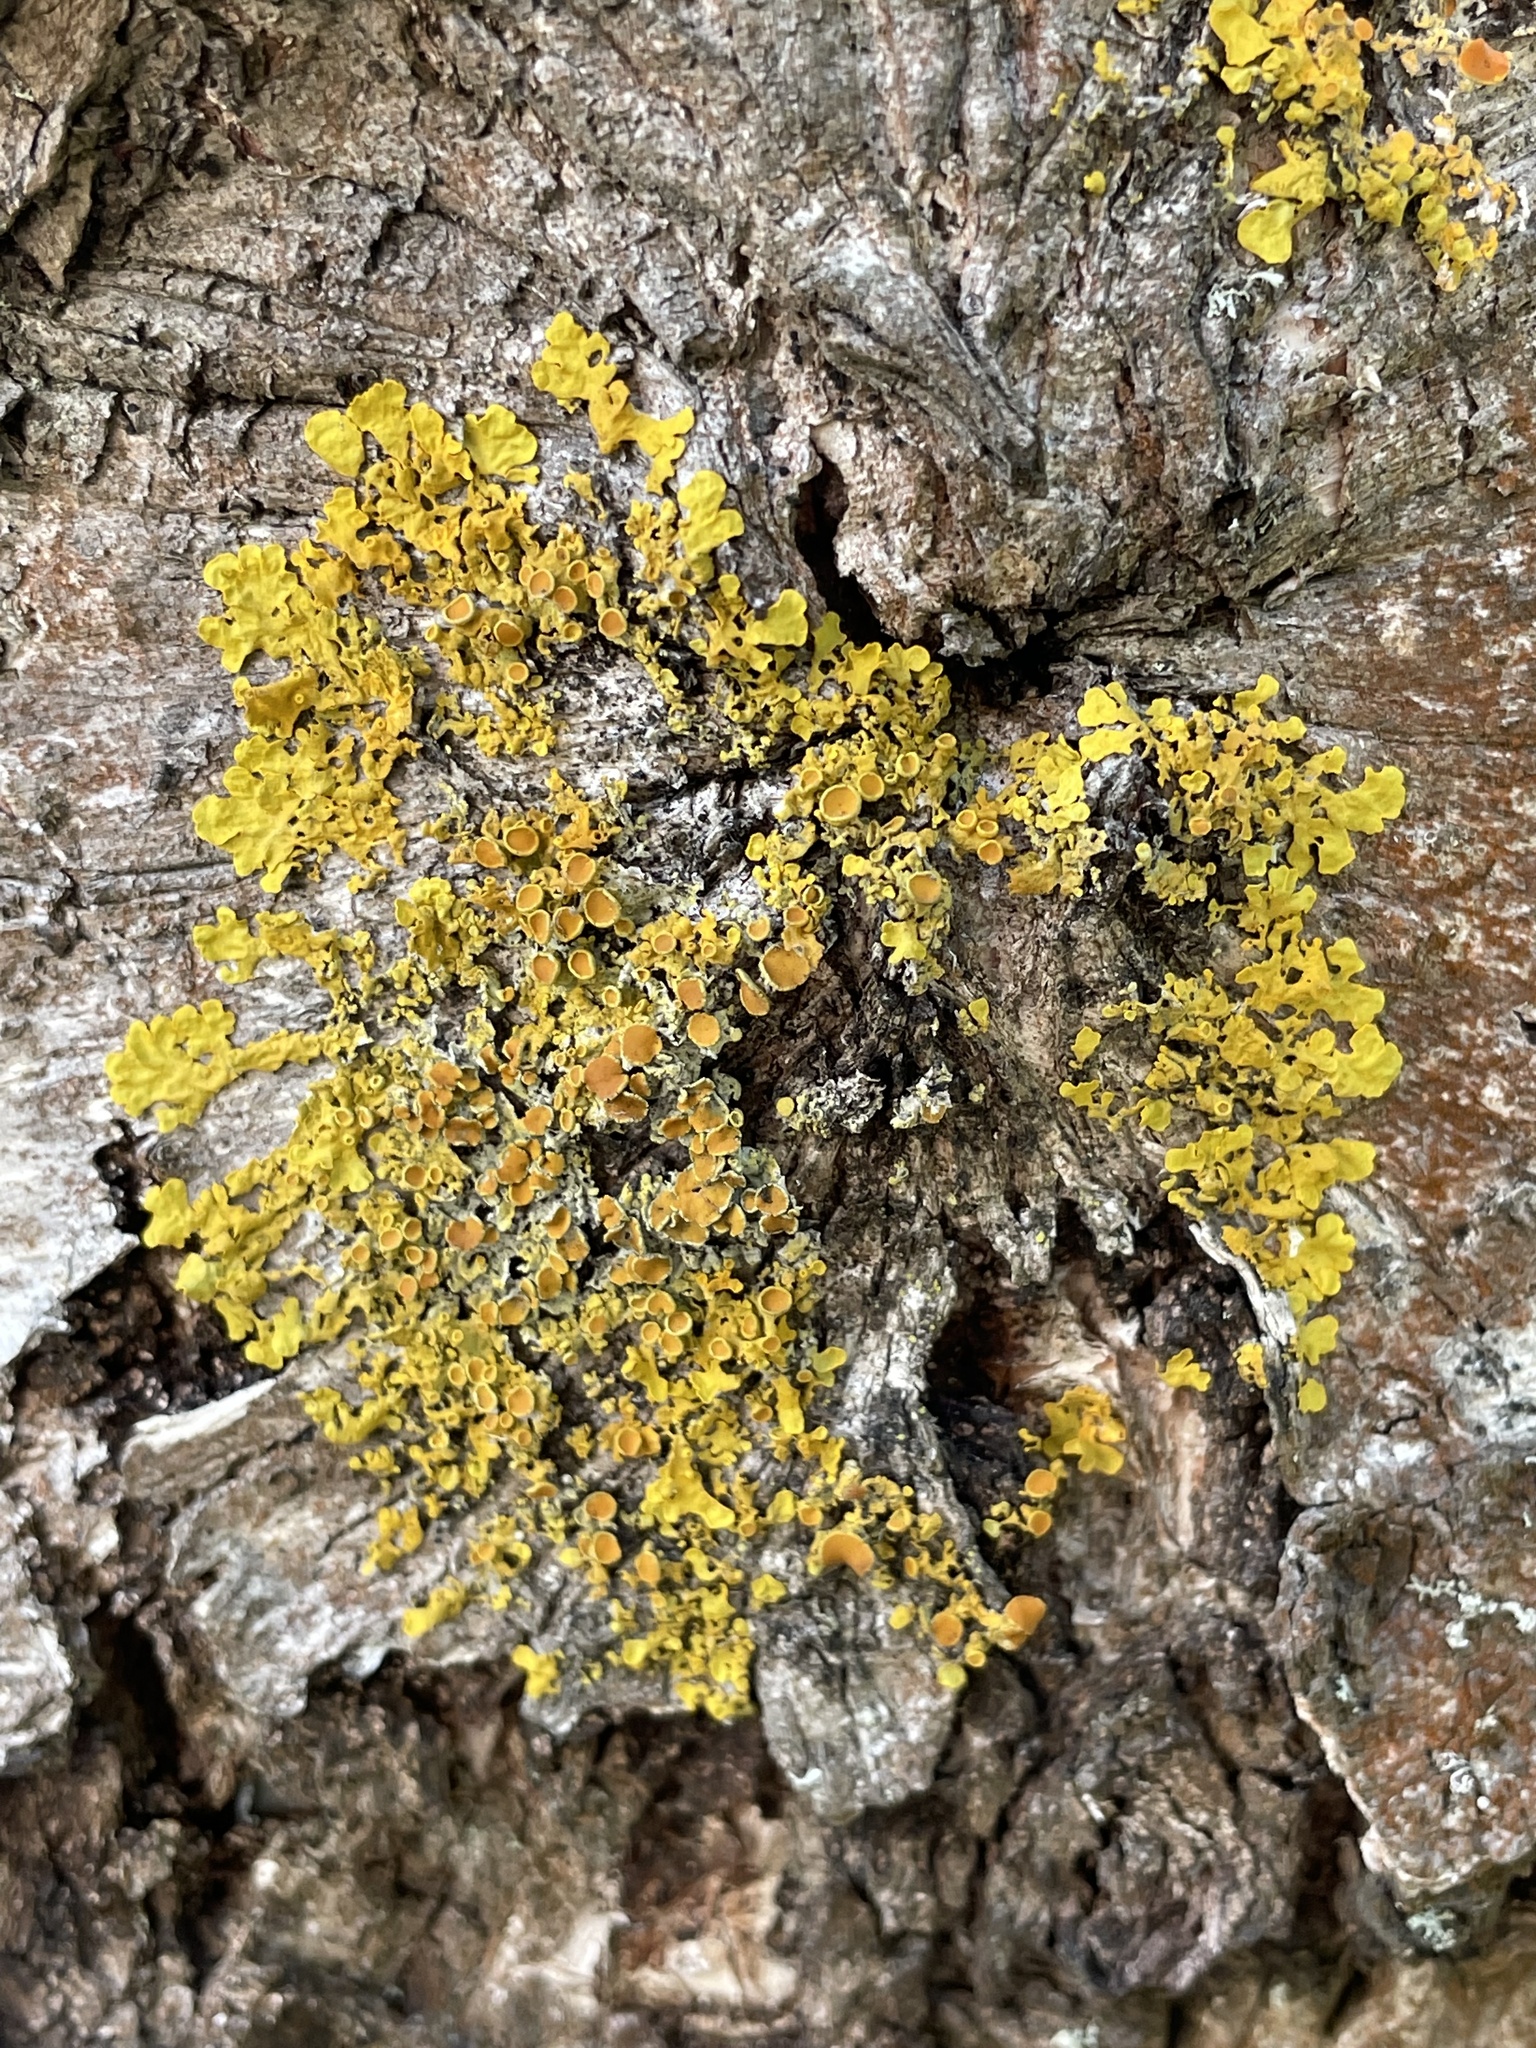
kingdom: Fungi
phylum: Ascomycota
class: Lecanoromycetes
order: Teloschistales
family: Teloschistaceae
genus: Xanthoria
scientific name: Xanthoria parietina
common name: Common orange lichen
